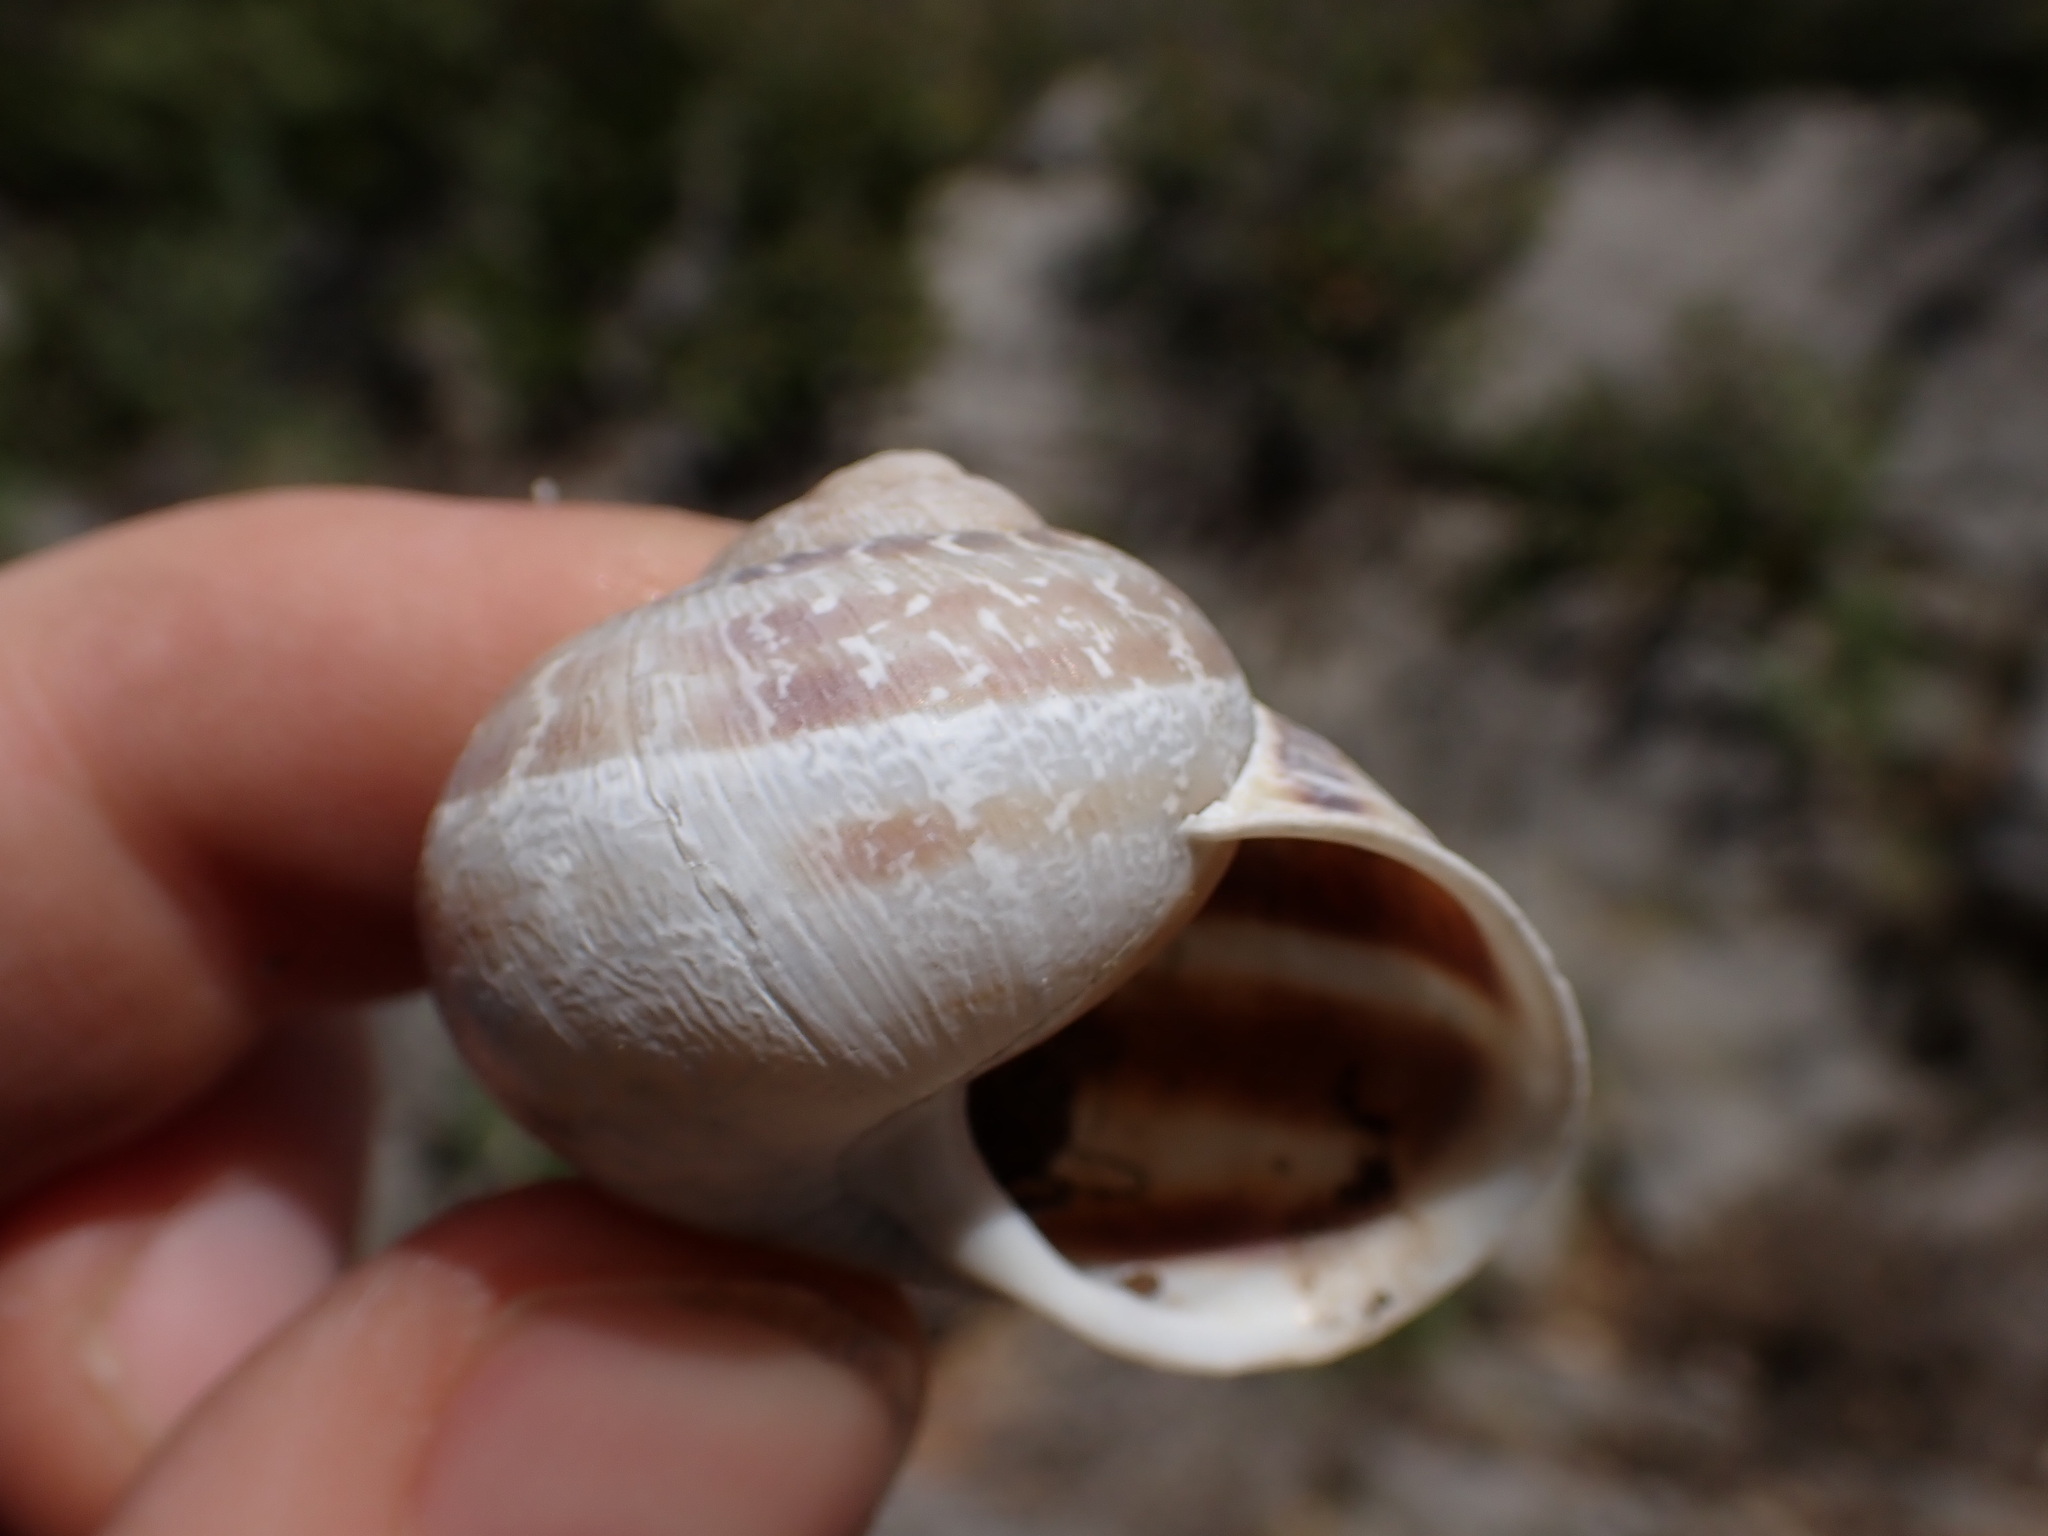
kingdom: Animalia
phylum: Mollusca
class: Gastropoda
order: Stylommatophora
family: Helicidae
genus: Cornu
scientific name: Cornu aspersum
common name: Brown garden snail
